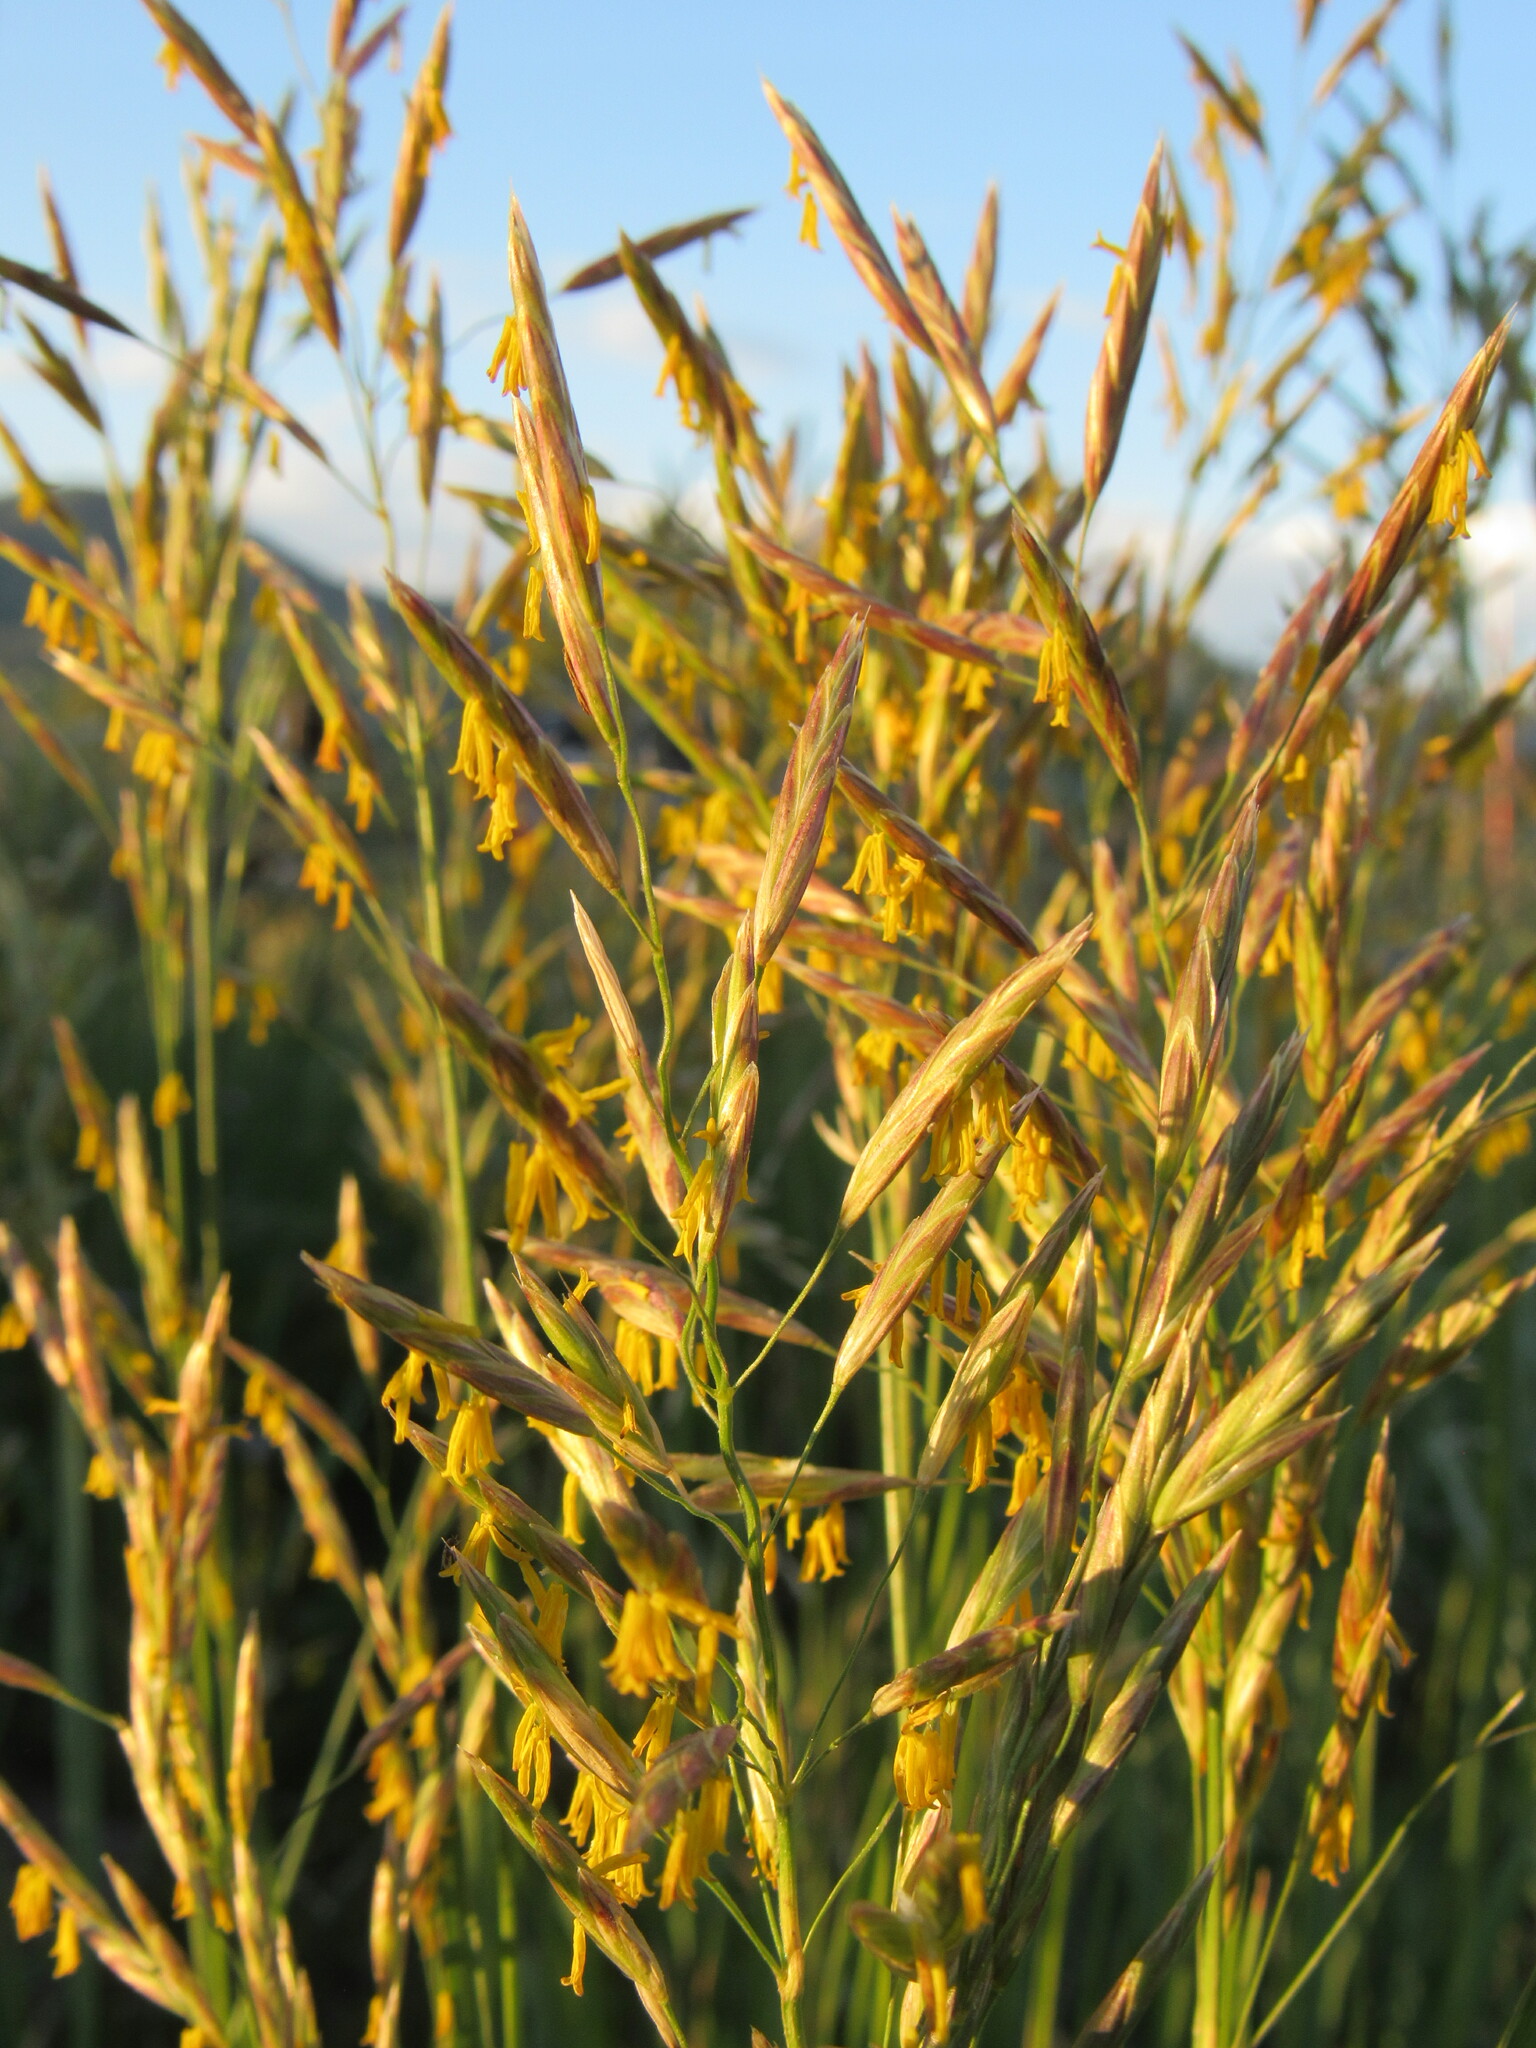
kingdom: Plantae
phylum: Tracheophyta
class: Liliopsida
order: Poales
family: Poaceae
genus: Bromus
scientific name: Bromus inermis
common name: Smooth brome
